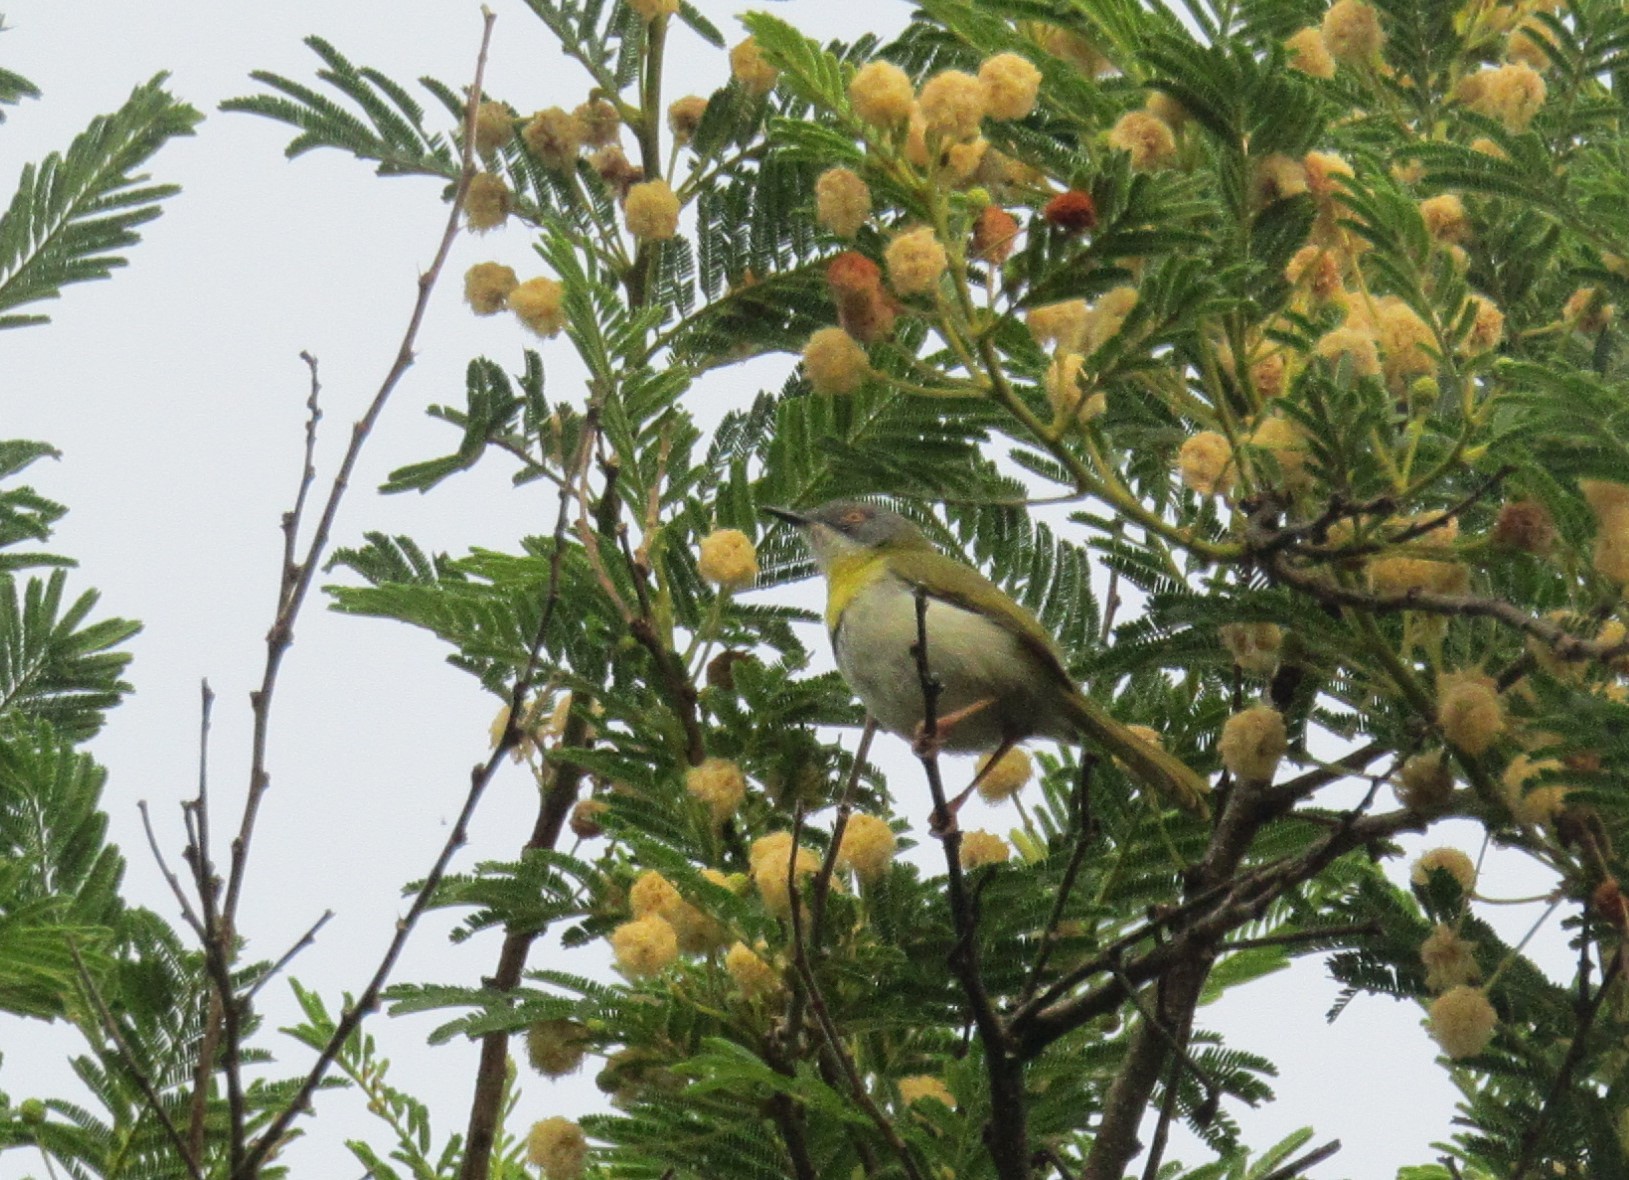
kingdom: Animalia
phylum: Chordata
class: Aves
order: Passeriformes
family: Cisticolidae
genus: Apalis
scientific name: Apalis flavida
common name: Yellow-breasted apalis
